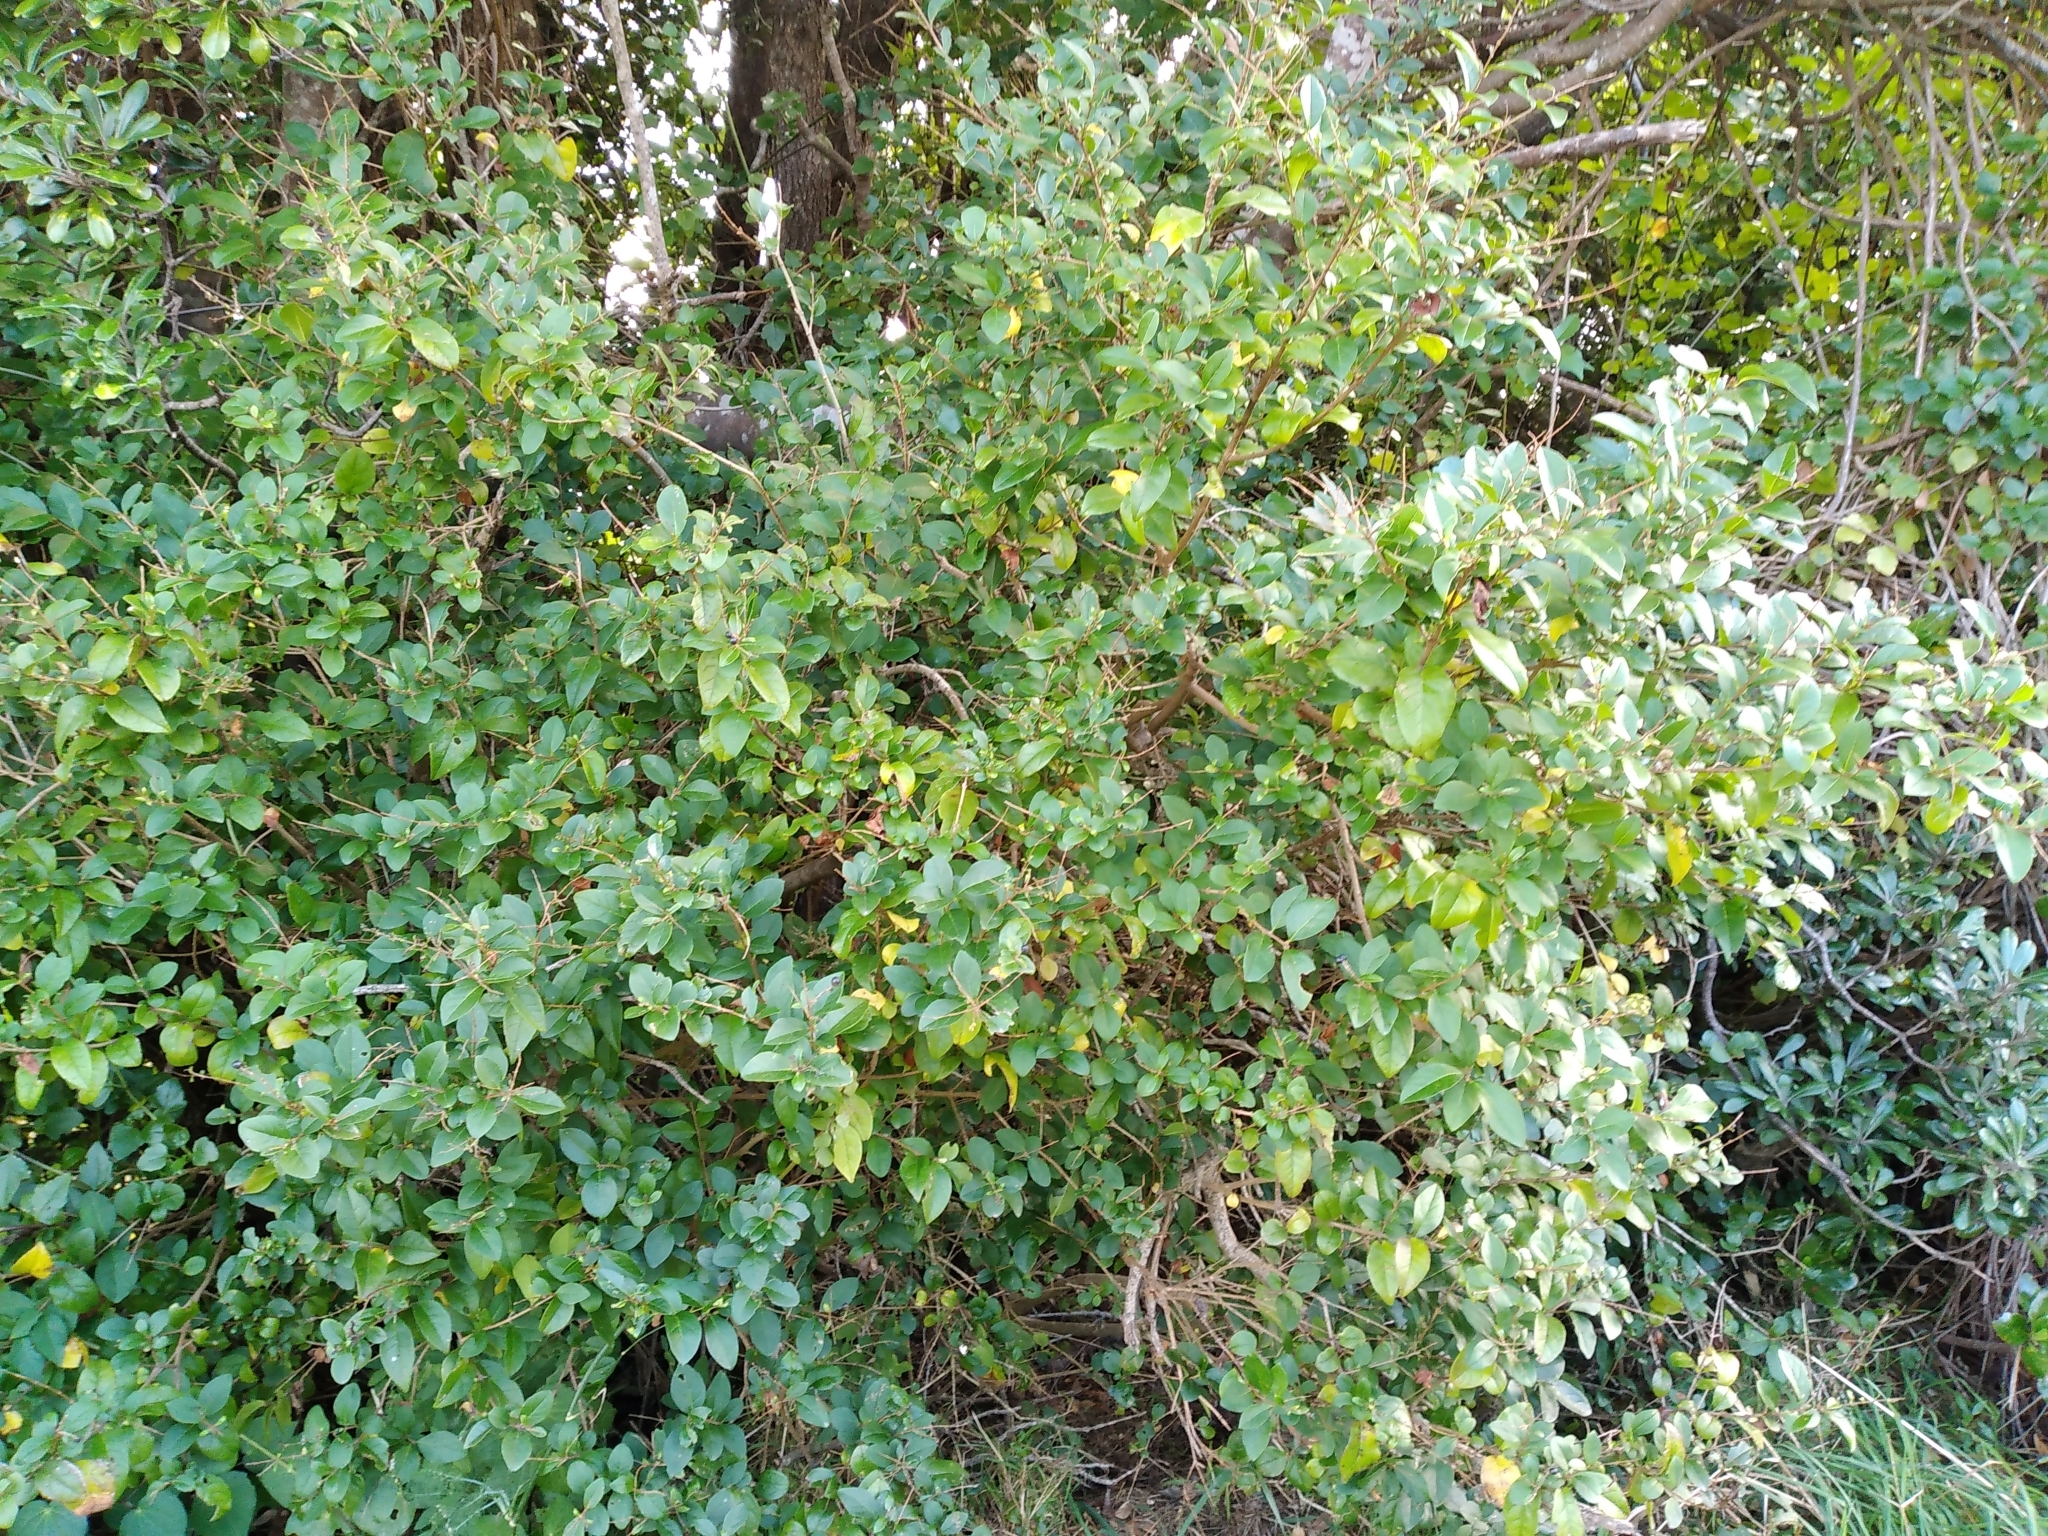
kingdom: Plantae
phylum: Tracheophyta
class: Magnoliopsida
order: Lamiales
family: Oleaceae
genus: Ligustrum
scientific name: Ligustrum ovalifolium
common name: California privet
